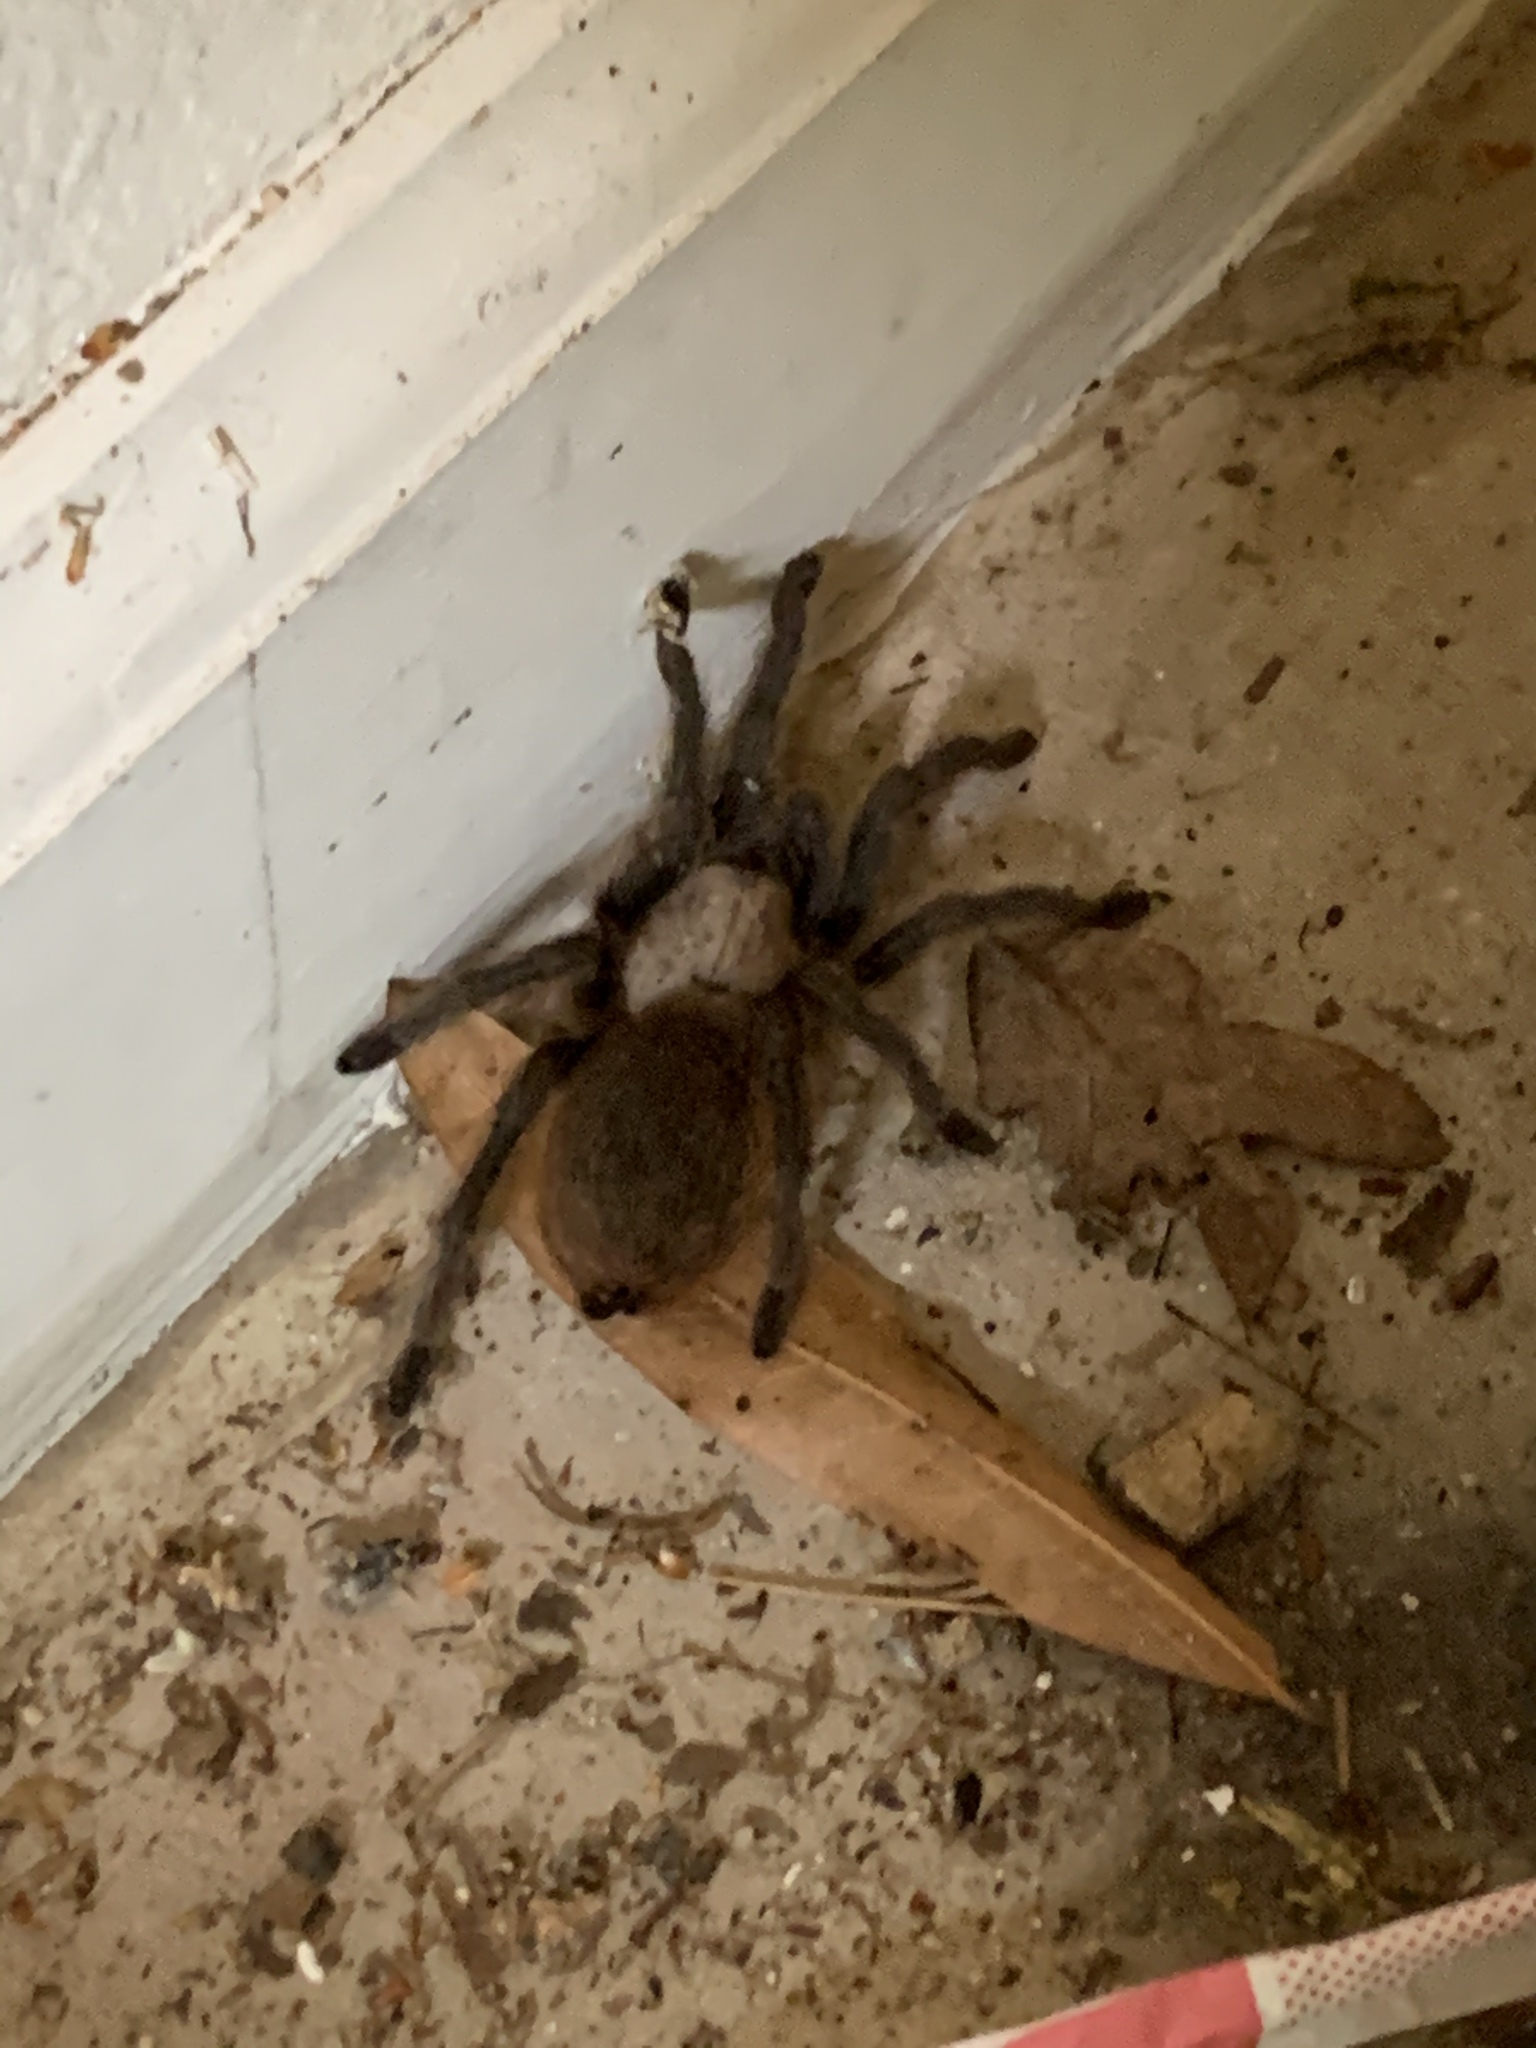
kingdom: Animalia
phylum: Arthropoda
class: Arachnida
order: Araneae
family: Theraphosidae
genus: Aphonopelma
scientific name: Aphonopelma hentzi
